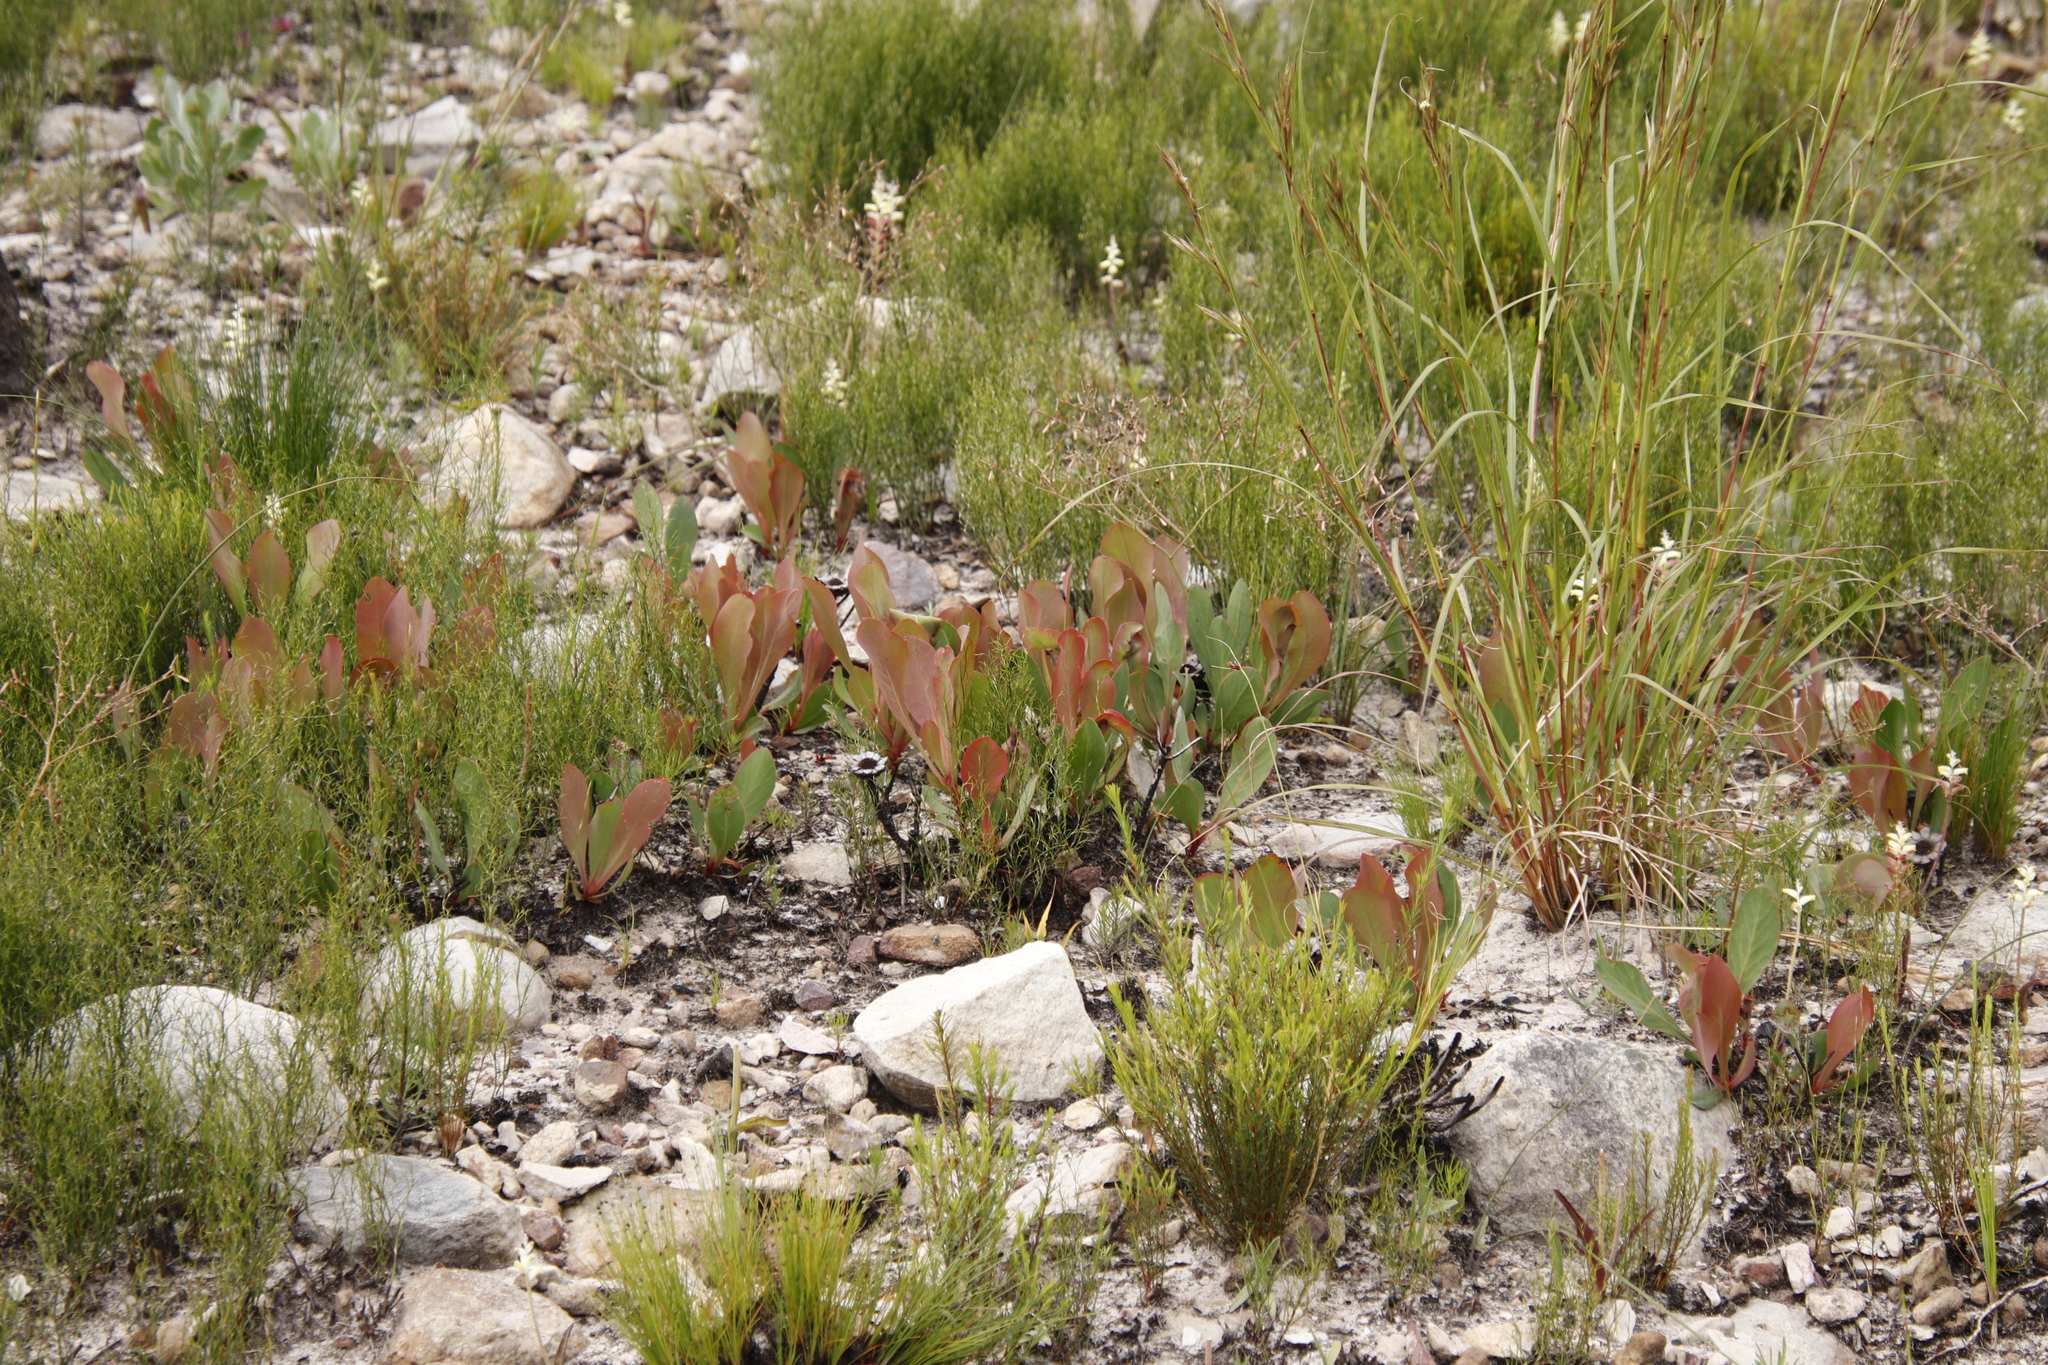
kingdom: Plantae
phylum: Tracheophyta
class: Magnoliopsida
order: Proteales
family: Proteaceae
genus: Protea
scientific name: Protea acaulos
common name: Common ground sugarbush
